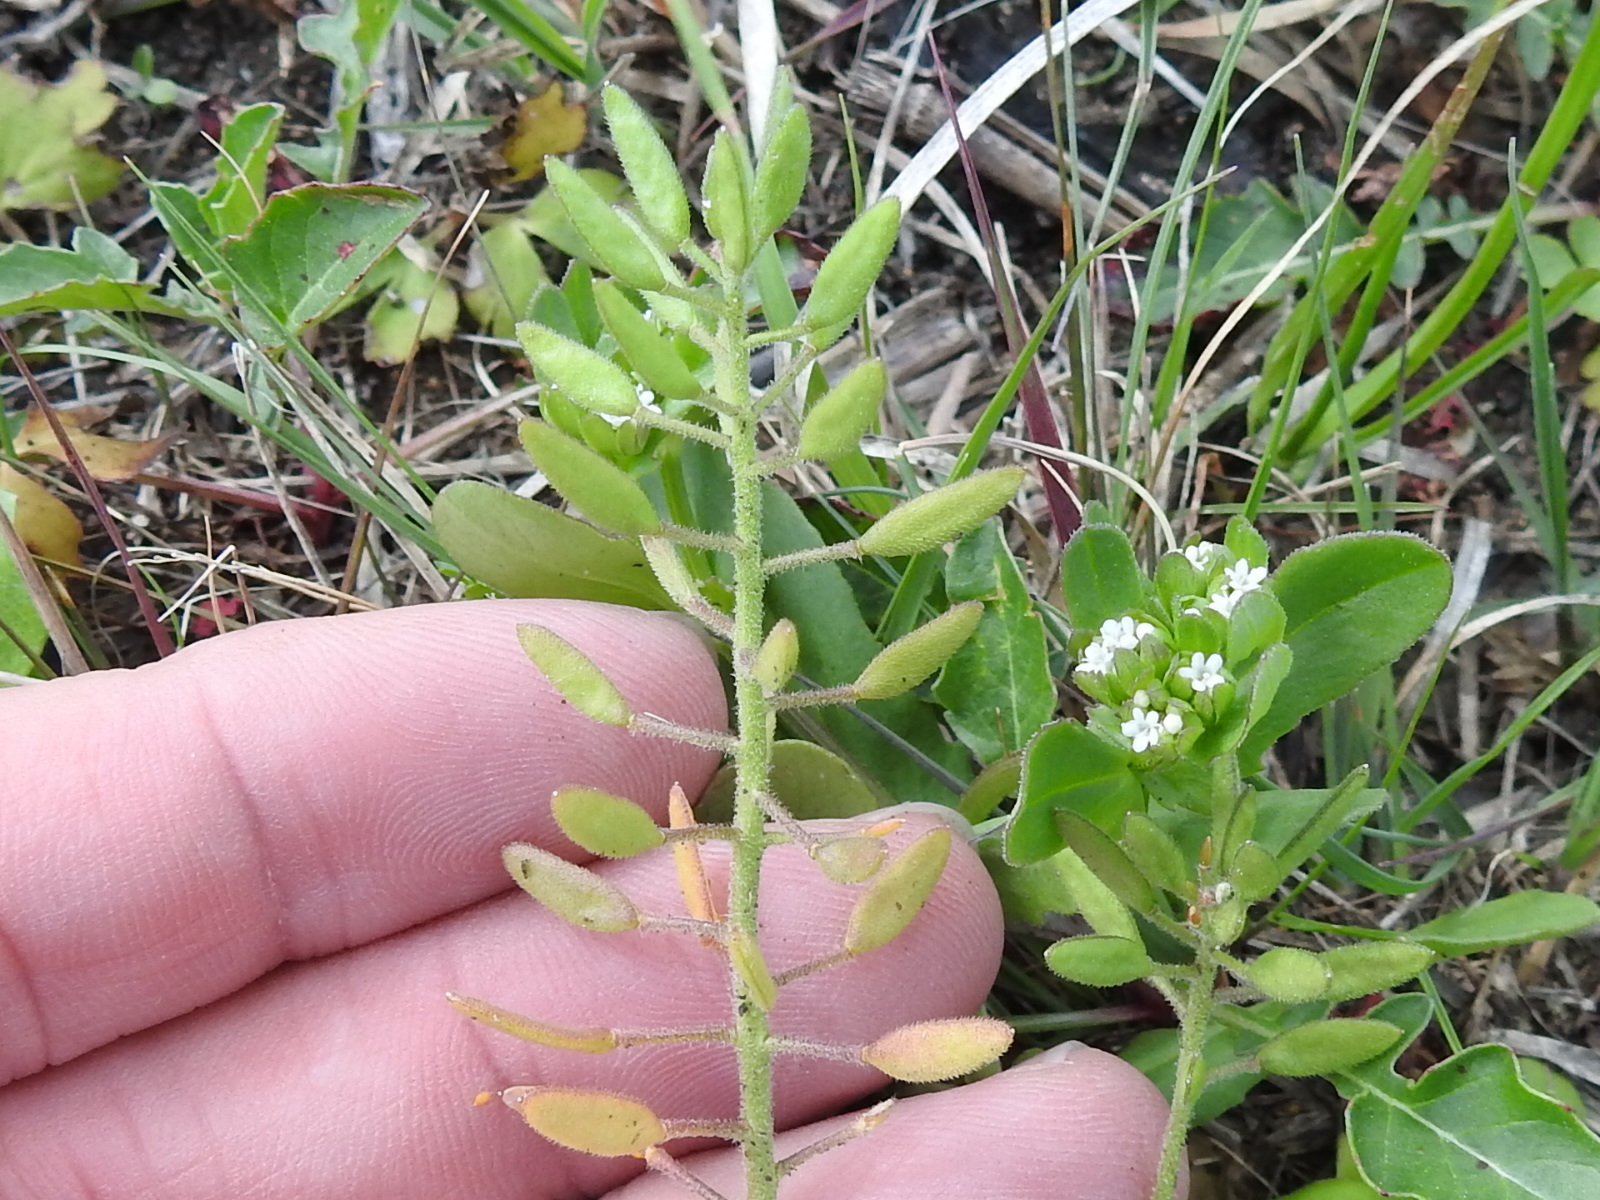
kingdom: Plantae
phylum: Tracheophyta
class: Magnoliopsida
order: Brassicales
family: Brassicaceae
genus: Tomostima
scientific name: Tomostima cuneifolia
